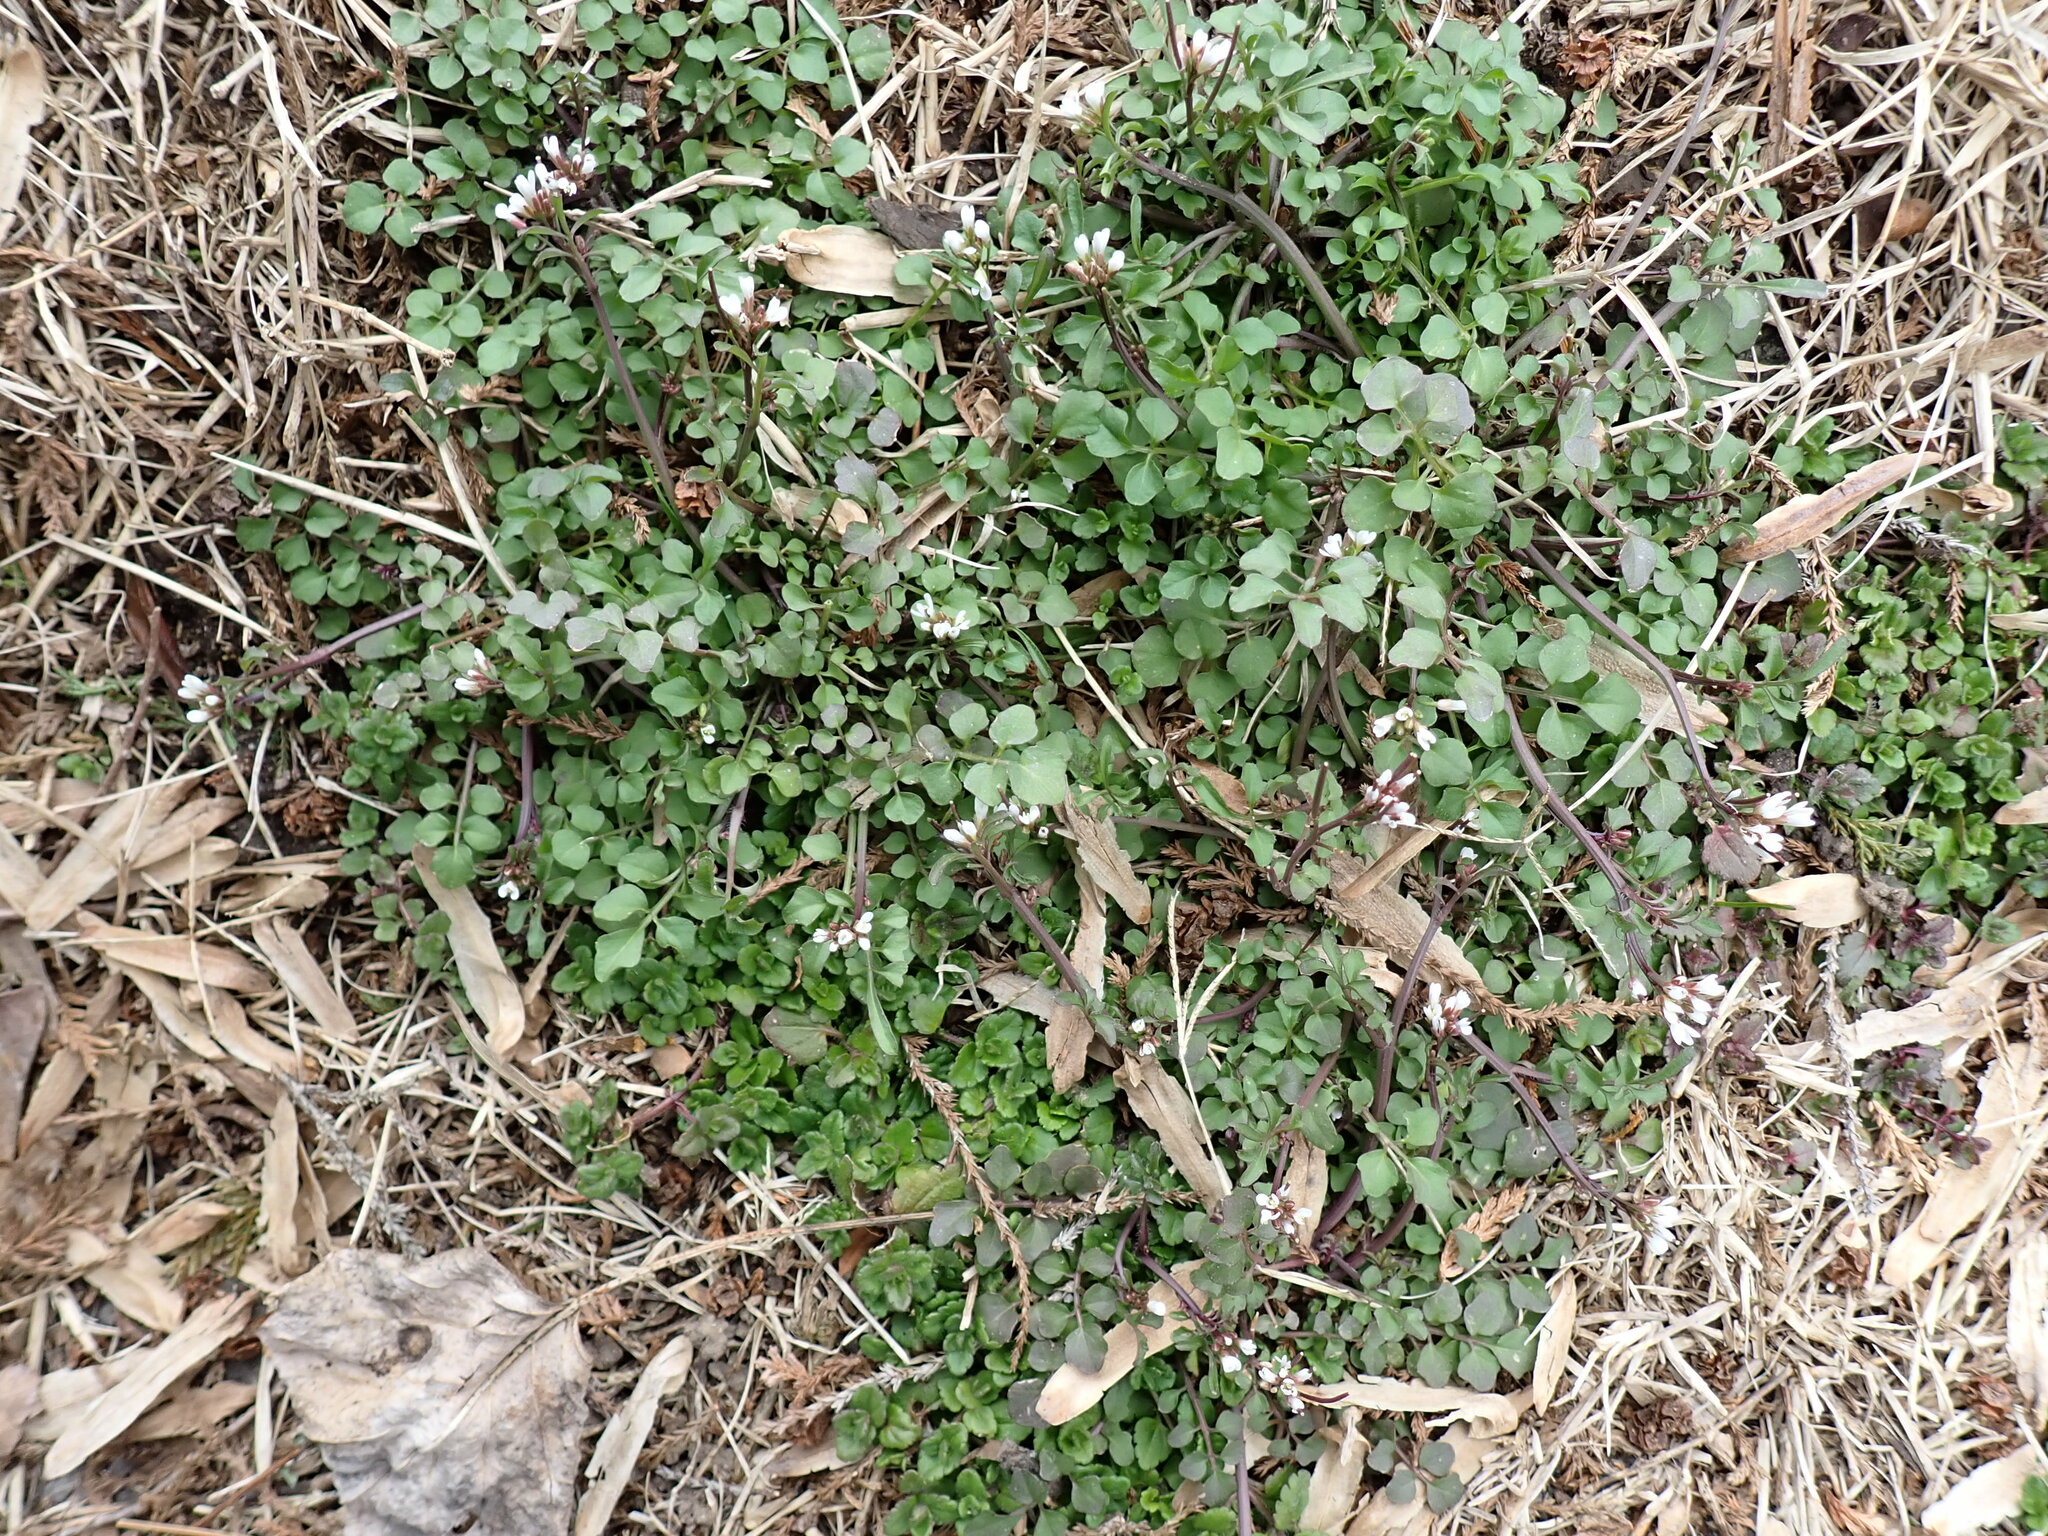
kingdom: Plantae
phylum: Tracheophyta
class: Magnoliopsida
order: Brassicales
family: Brassicaceae
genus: Cardamine
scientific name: Cardamine hirsuta
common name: Hairy bittercress
